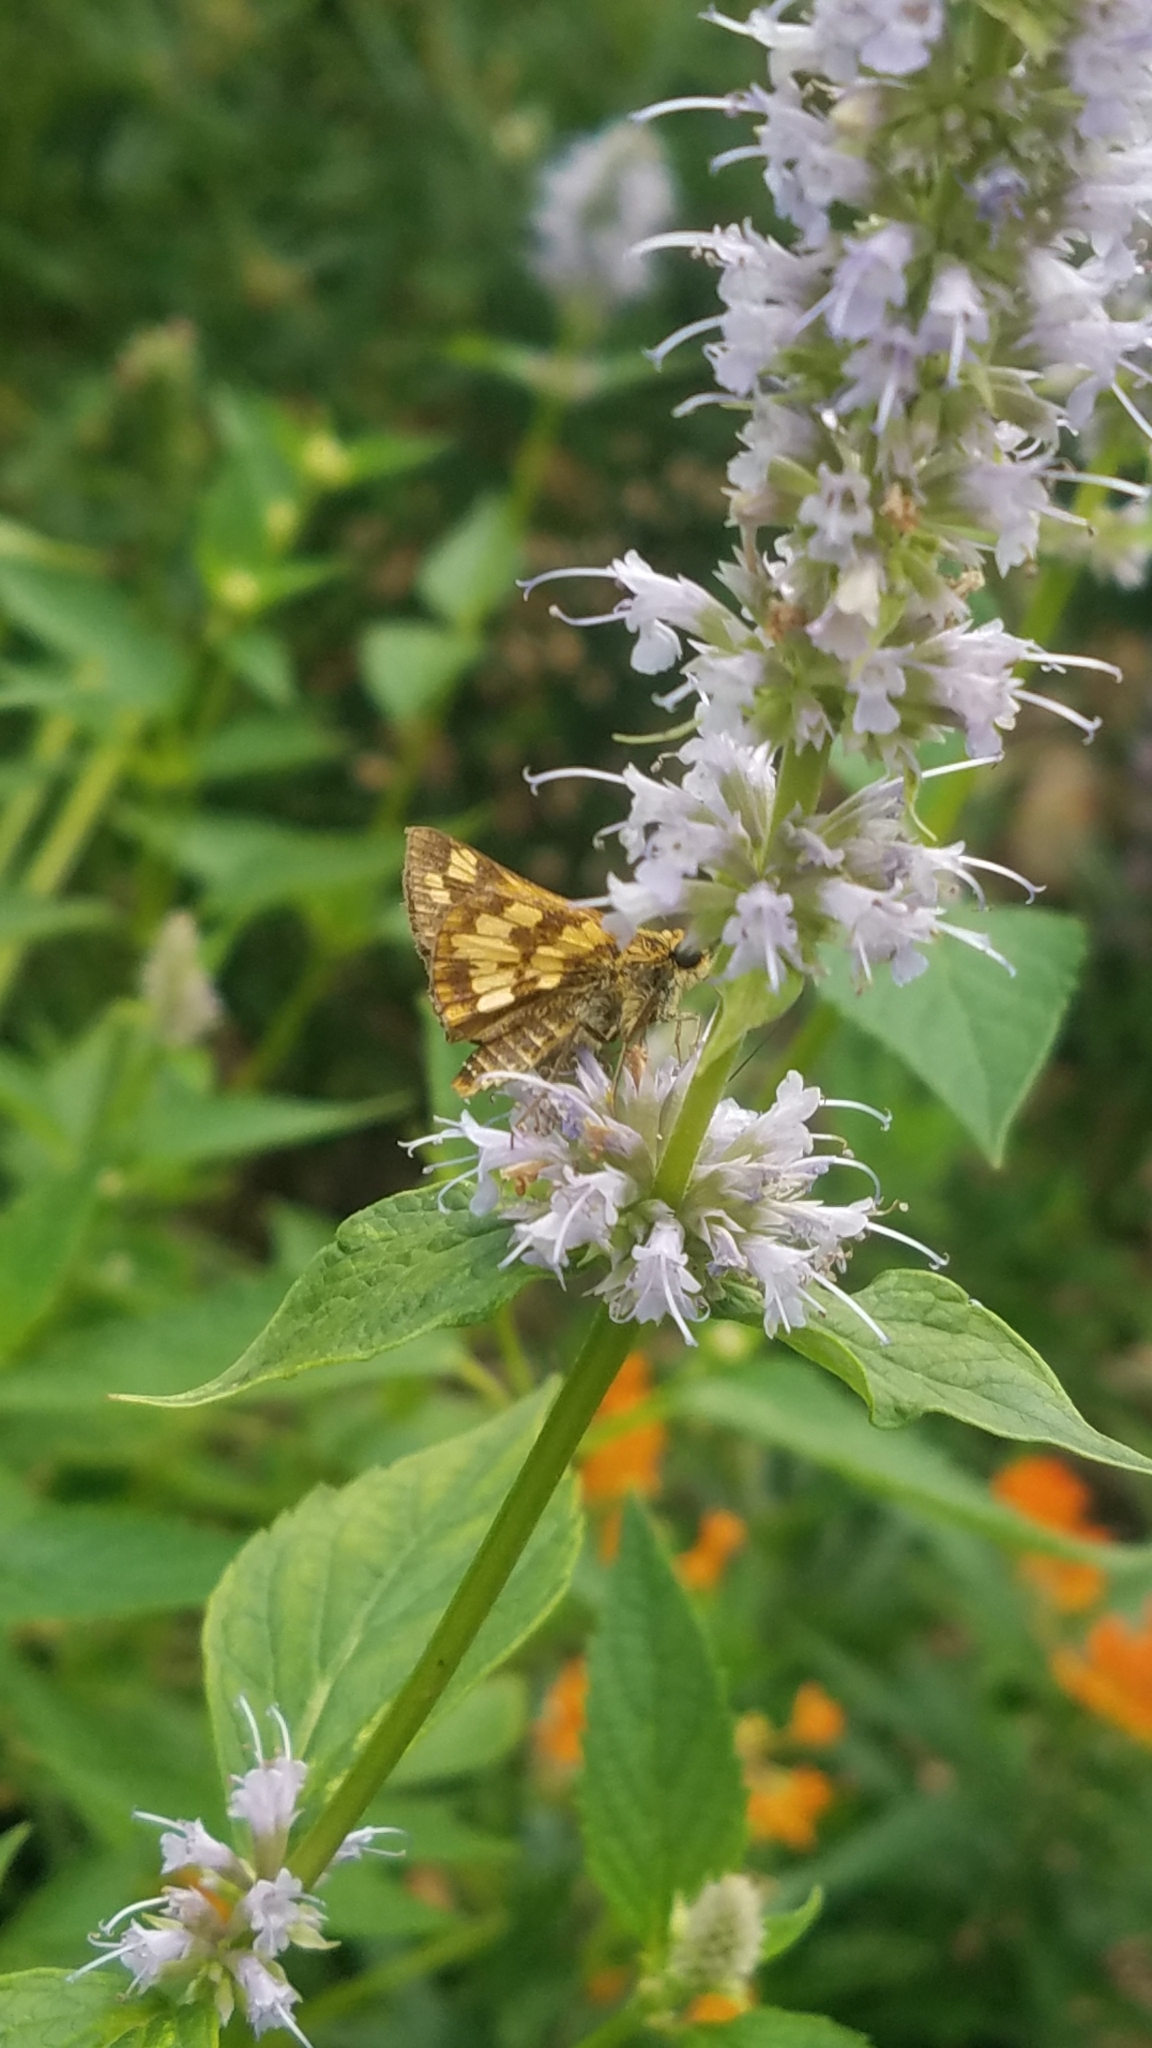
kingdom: Animalia
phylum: Arthropoda
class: Insecta
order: Lepidoptera
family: Hesperiidae
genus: Polites
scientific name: Polites coras
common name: Peck's skipper
